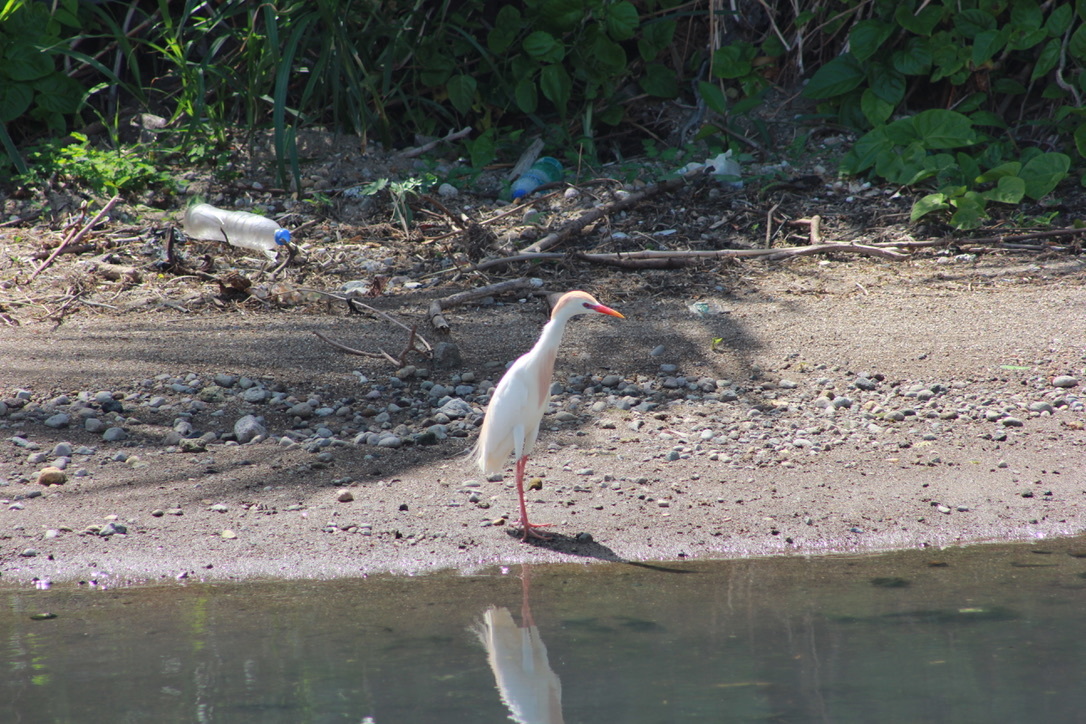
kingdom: Animalia
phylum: Chordata
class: Aves
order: Pelecaniformes
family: Ardeidae
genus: Bubulcus
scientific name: Bubulcus ibis
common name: Cattle egret
